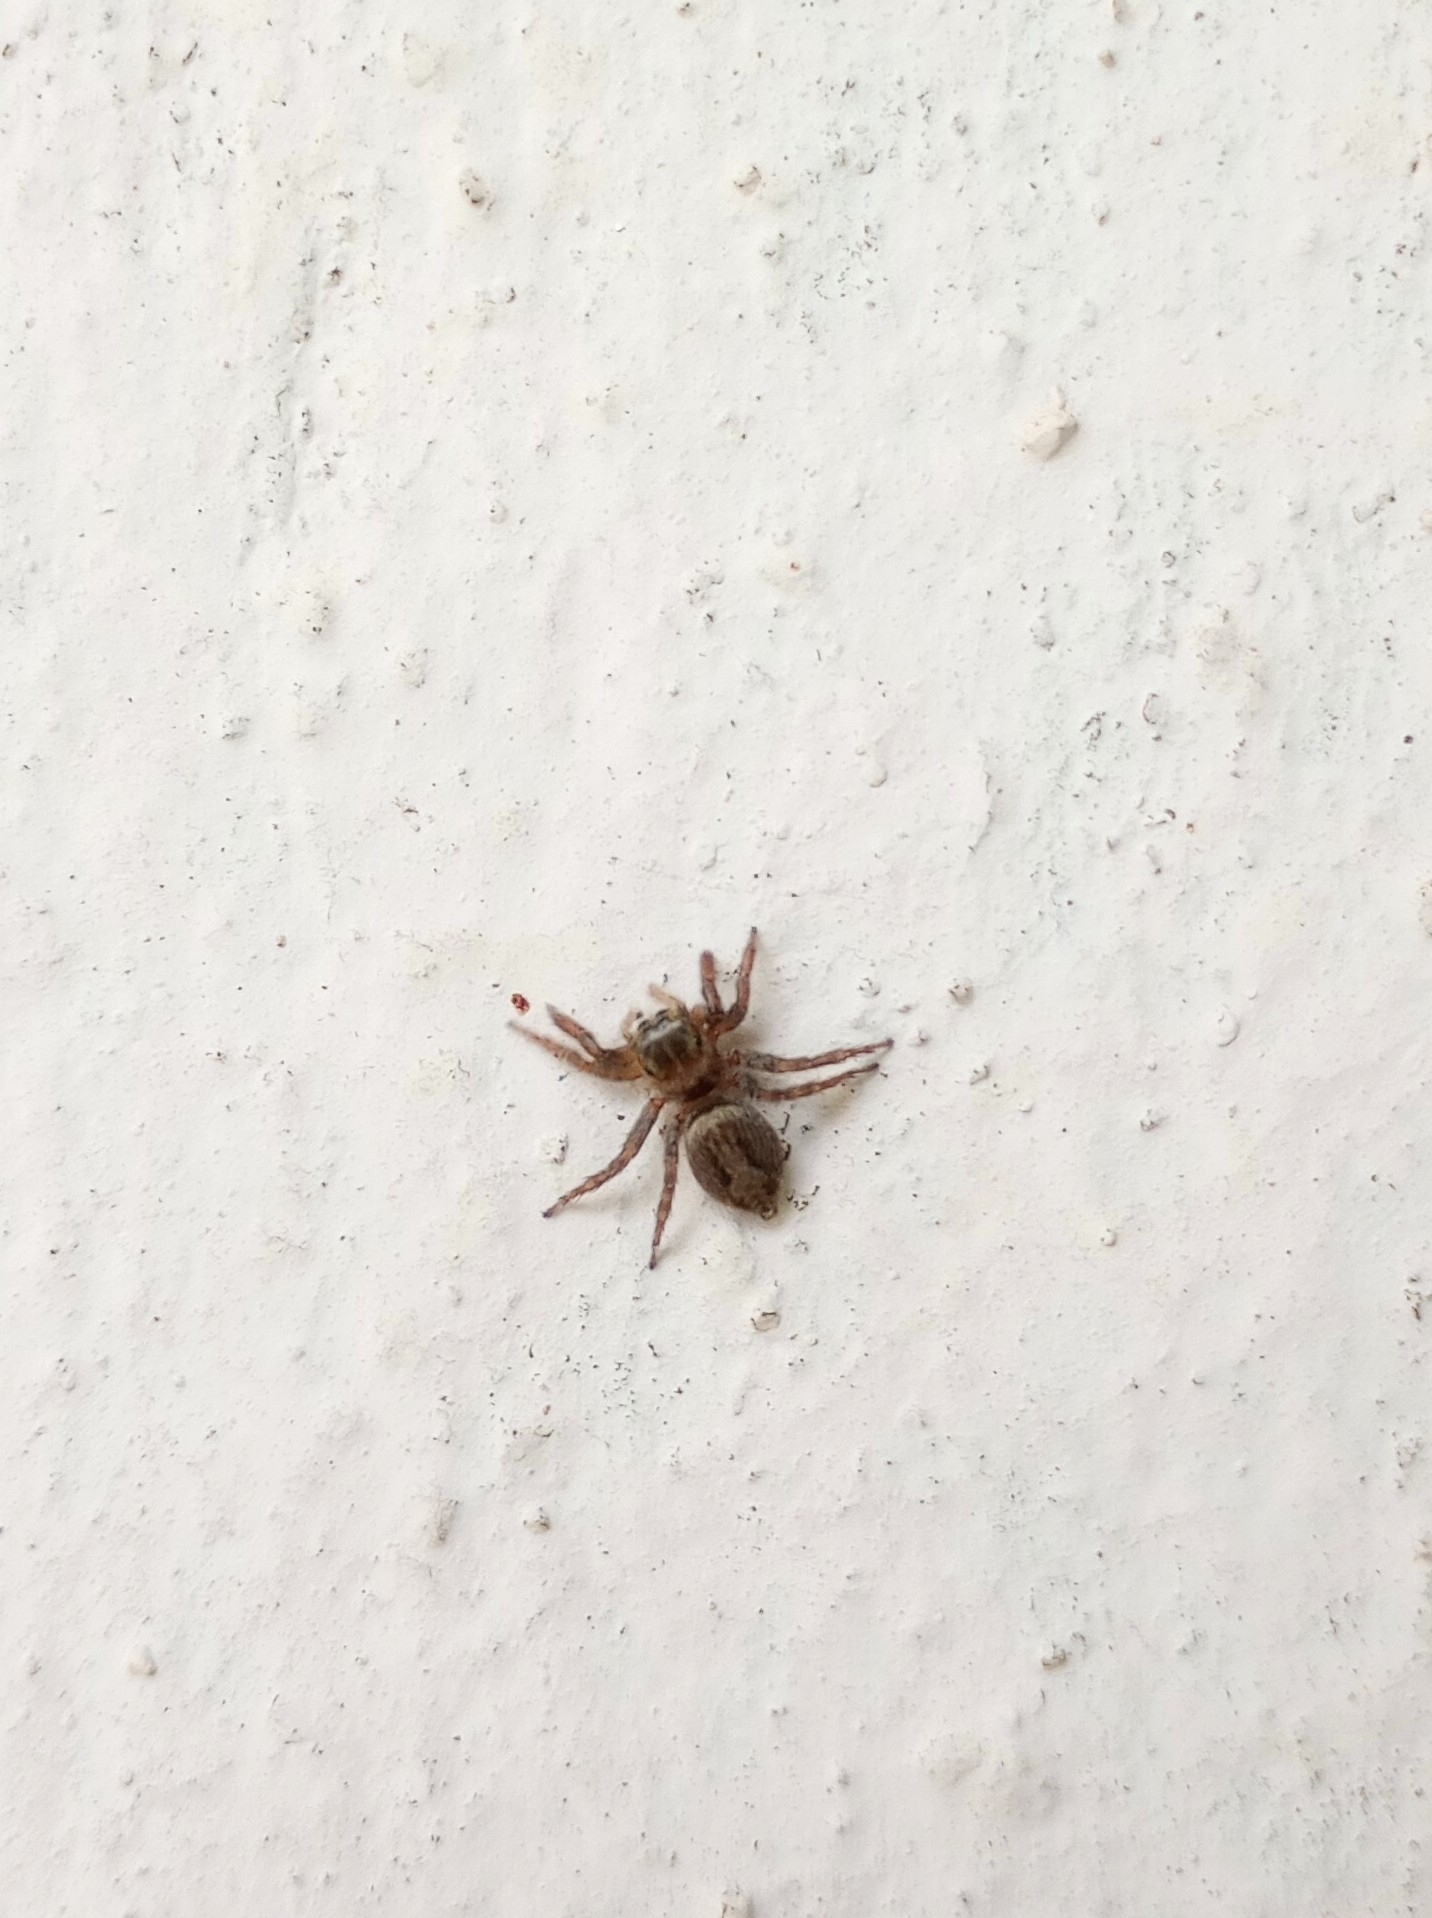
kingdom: Animalia
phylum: Arthropoda
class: Arachnida
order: Araneae
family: Salticidae
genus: Hasarius
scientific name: Hasarius adansoni
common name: Jumping spider
